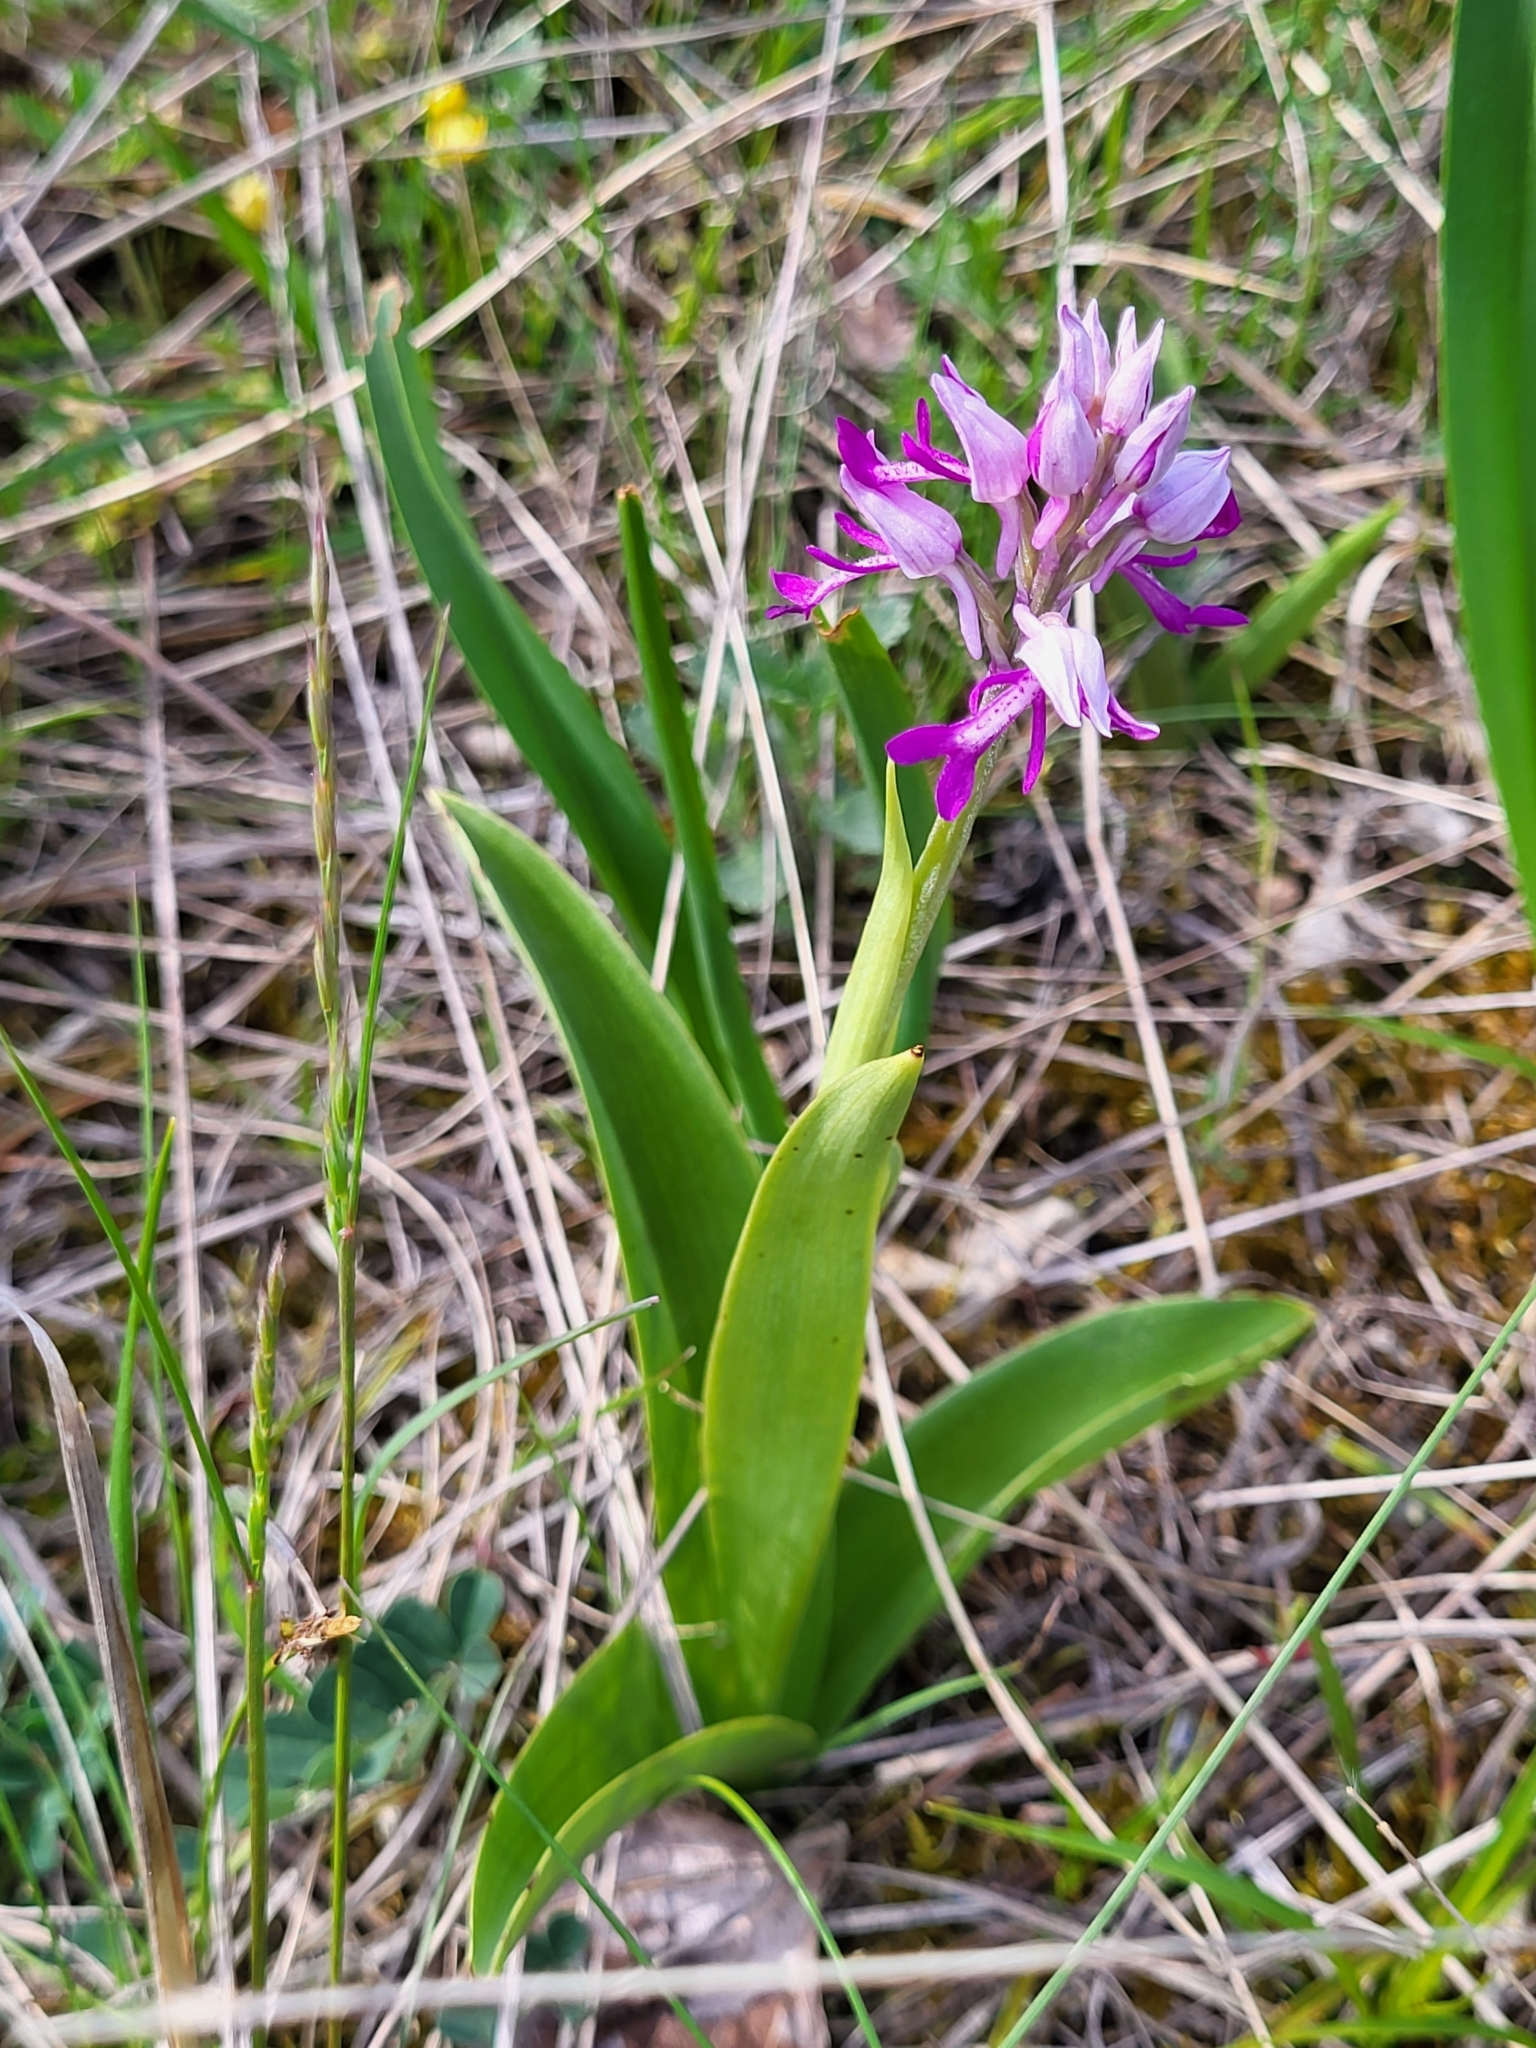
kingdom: Plantae
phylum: Tracheophyta
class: Liliopsida
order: Asparagales
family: Orchidaceae
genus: Orchis
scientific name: Orchis militaris
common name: Military orchid
